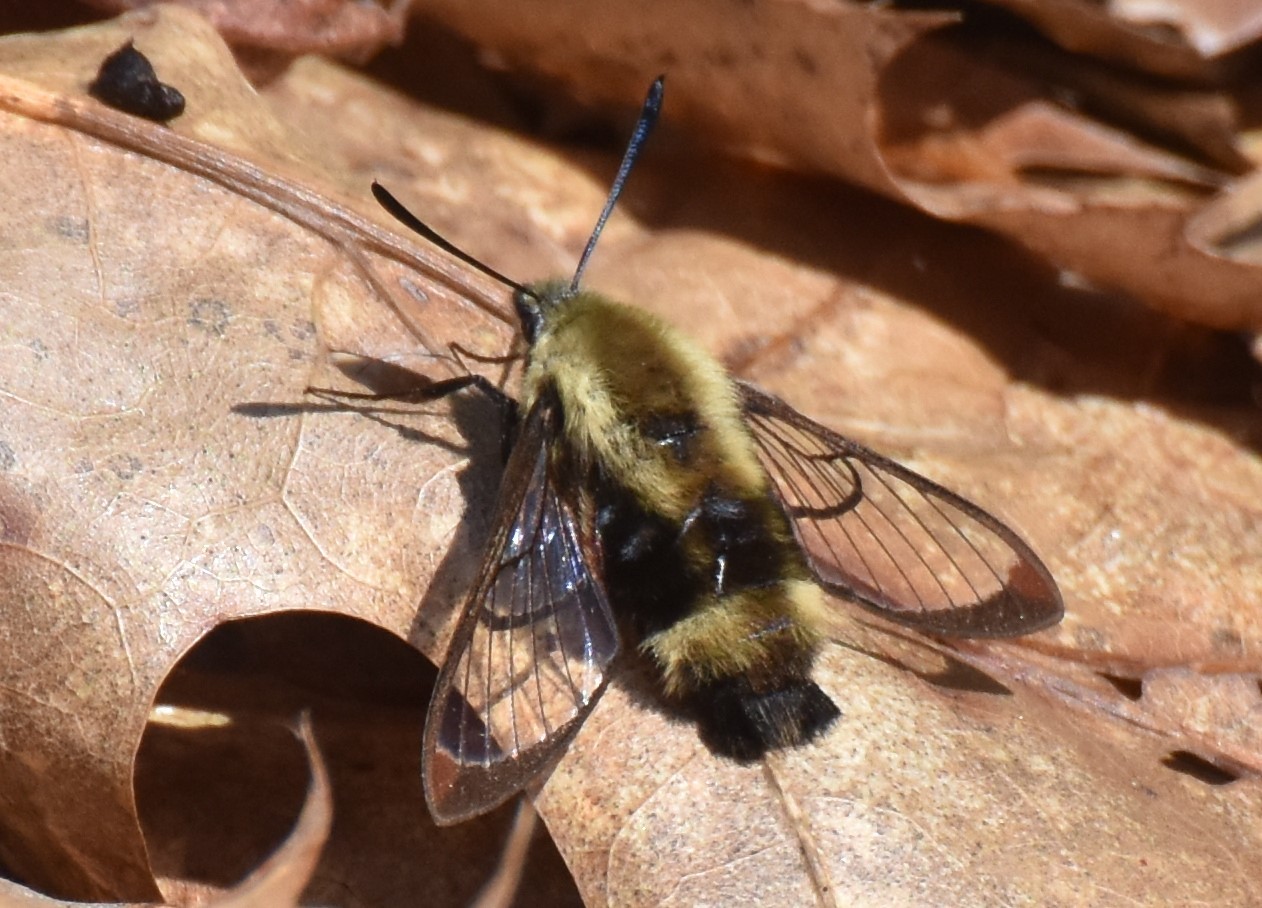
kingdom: Animalia
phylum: Arthropoda
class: Insecta
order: Lepidoptera
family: Sphingidae
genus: Hemaris
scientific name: Hemaris diffinis
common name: Bumblebee moth
